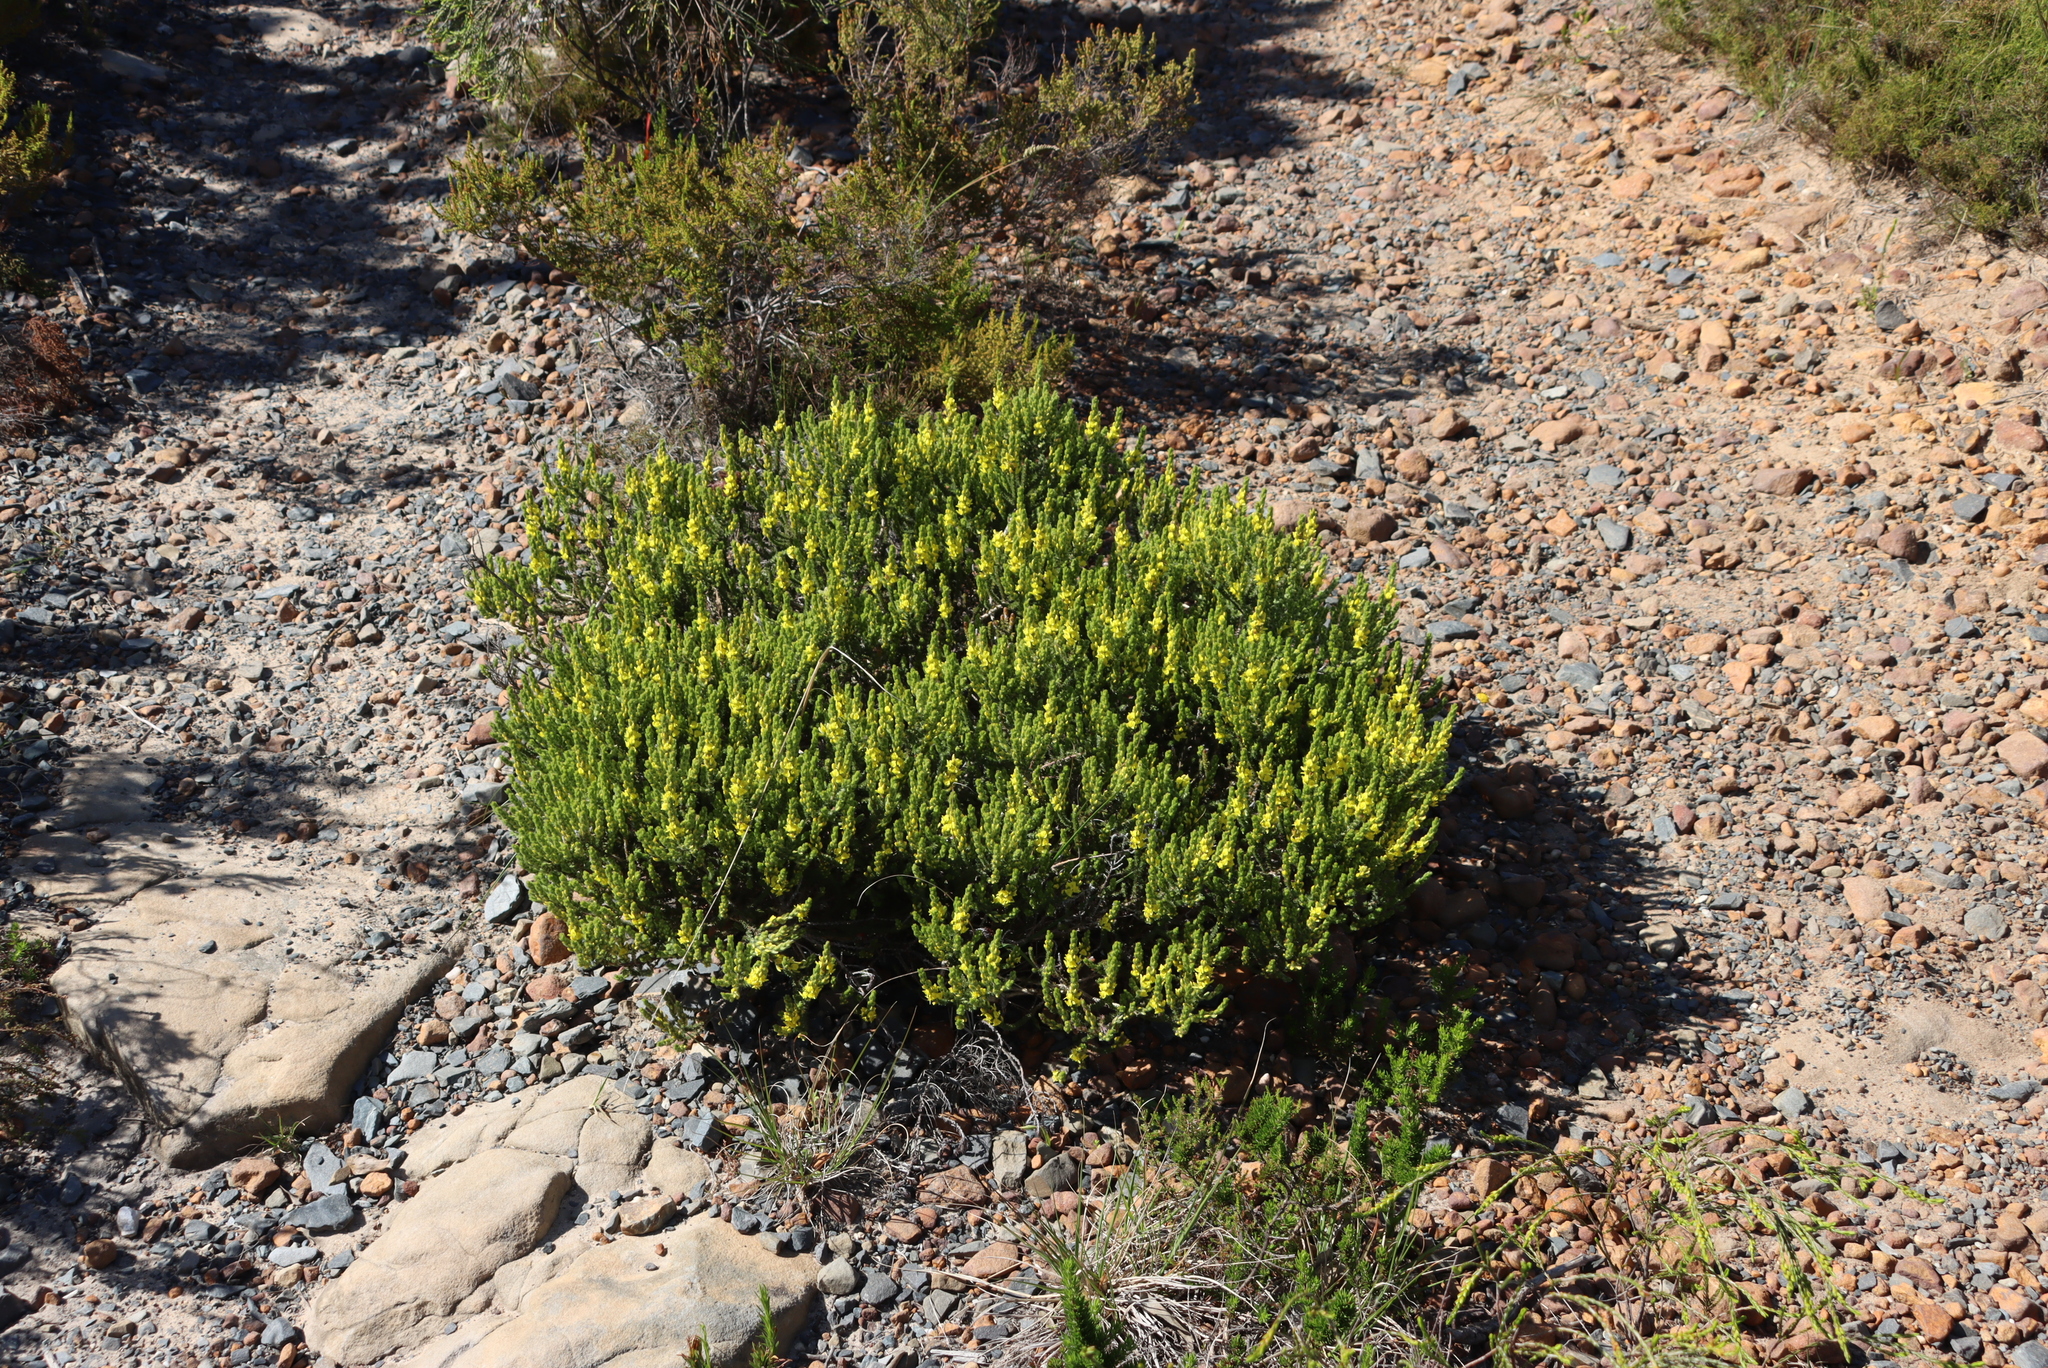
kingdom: Plantae
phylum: Tracheophyta
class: Magnoliopsida
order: Fabales
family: Fabaceae
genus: Aspalathus
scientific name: Aspalathus ericifolia
